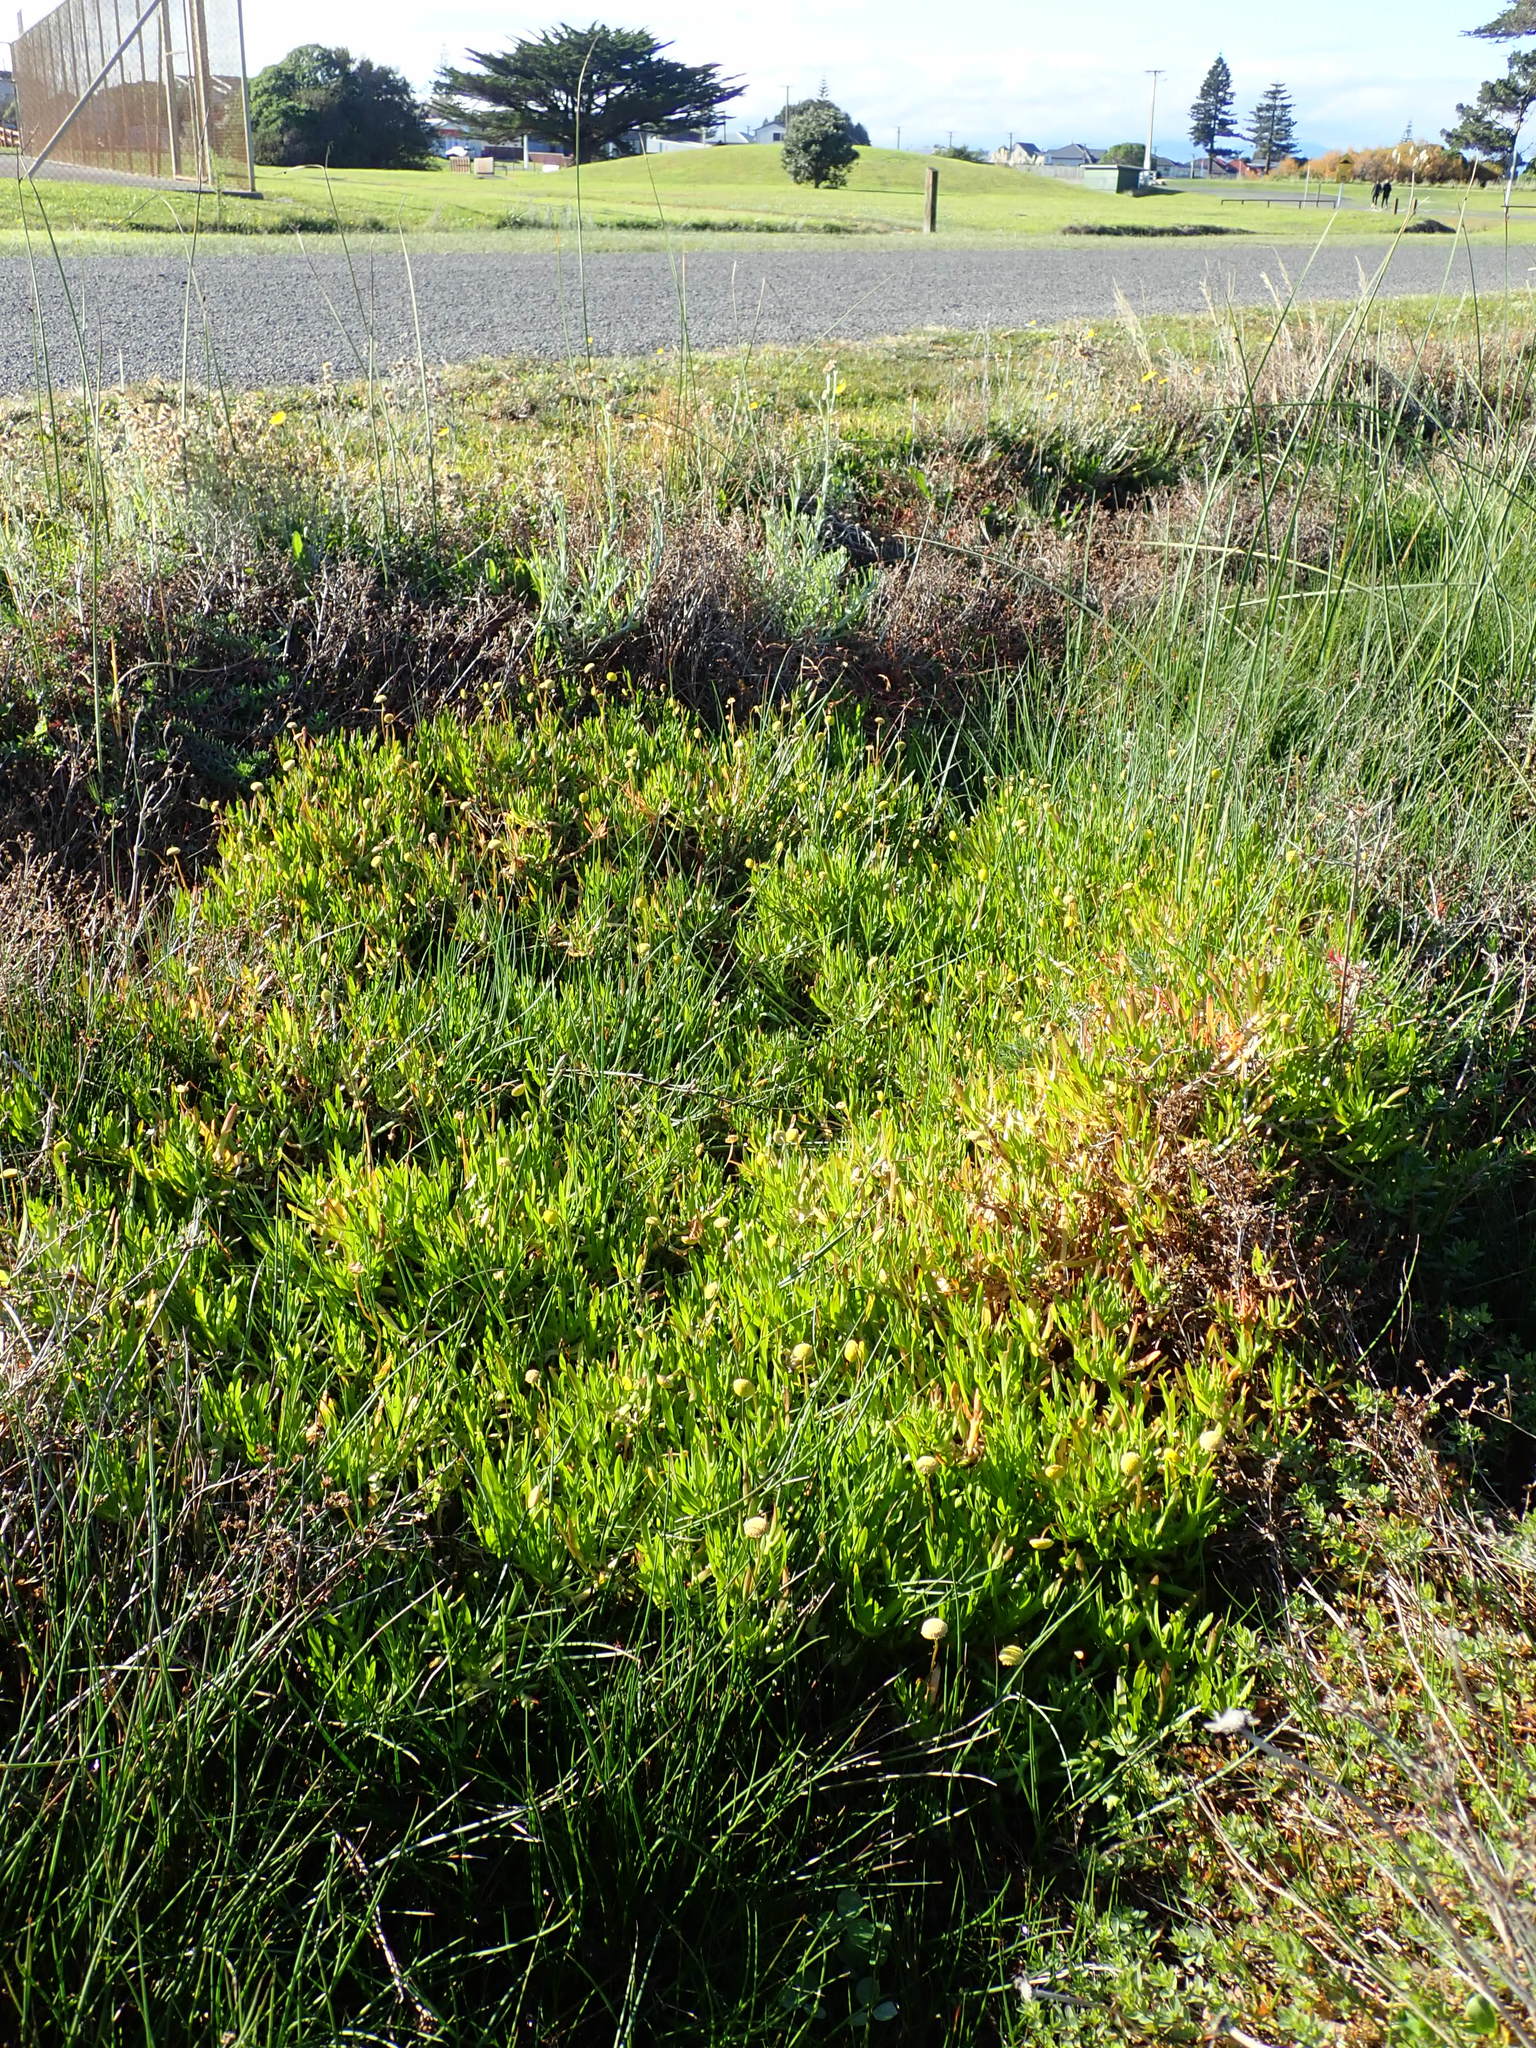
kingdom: Plantae
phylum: Tracheophyta
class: Magnoliopsida
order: Asterales
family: Asteraceae
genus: Cotula
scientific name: Cotula coronopifolia
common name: Buttonweed
